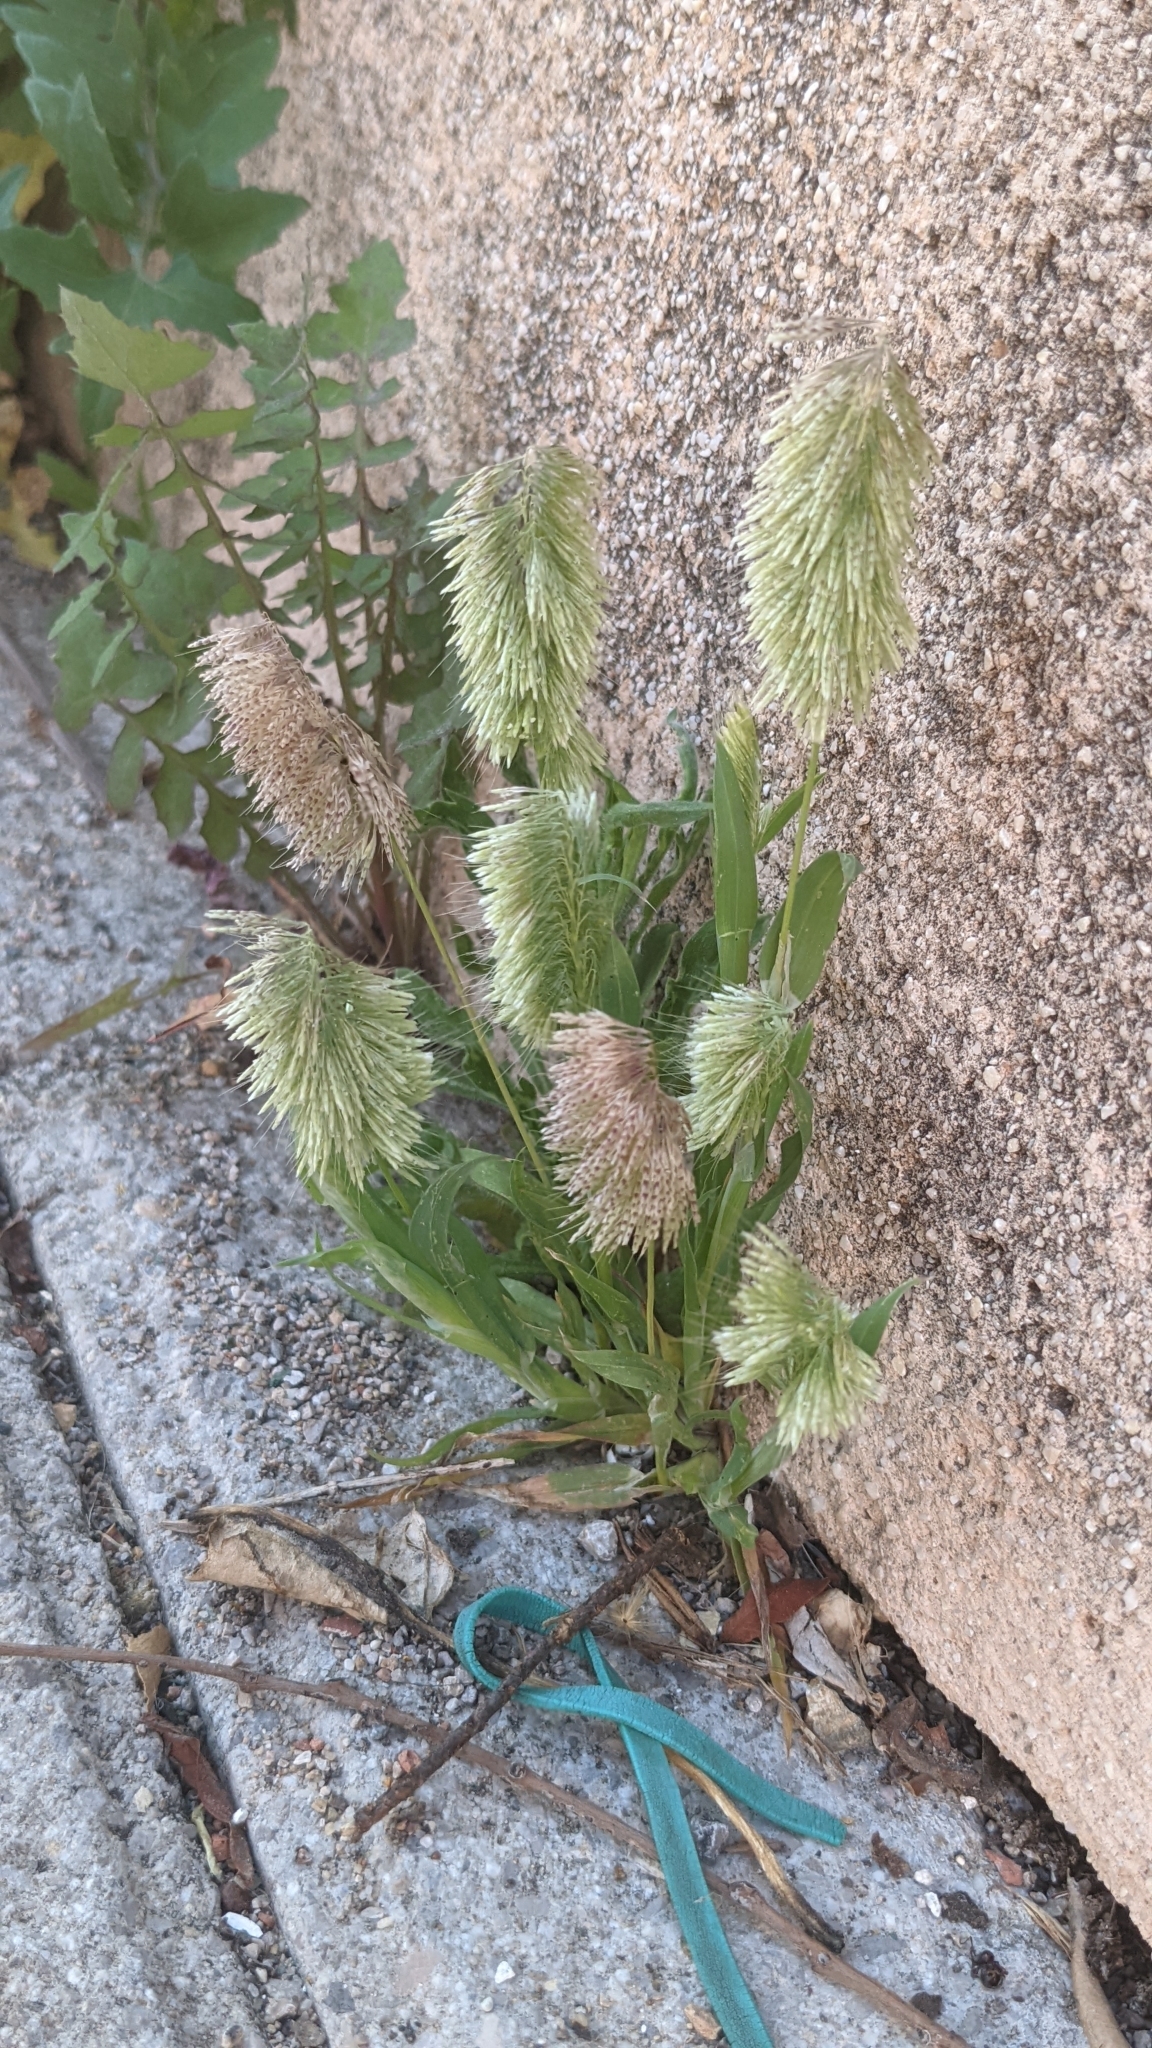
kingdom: Plantae
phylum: Tracheophyta
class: Liliopsida
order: Poales
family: Poaceae
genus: Lamarckia
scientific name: Lamarckia aurea
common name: Golden dog's-tail
